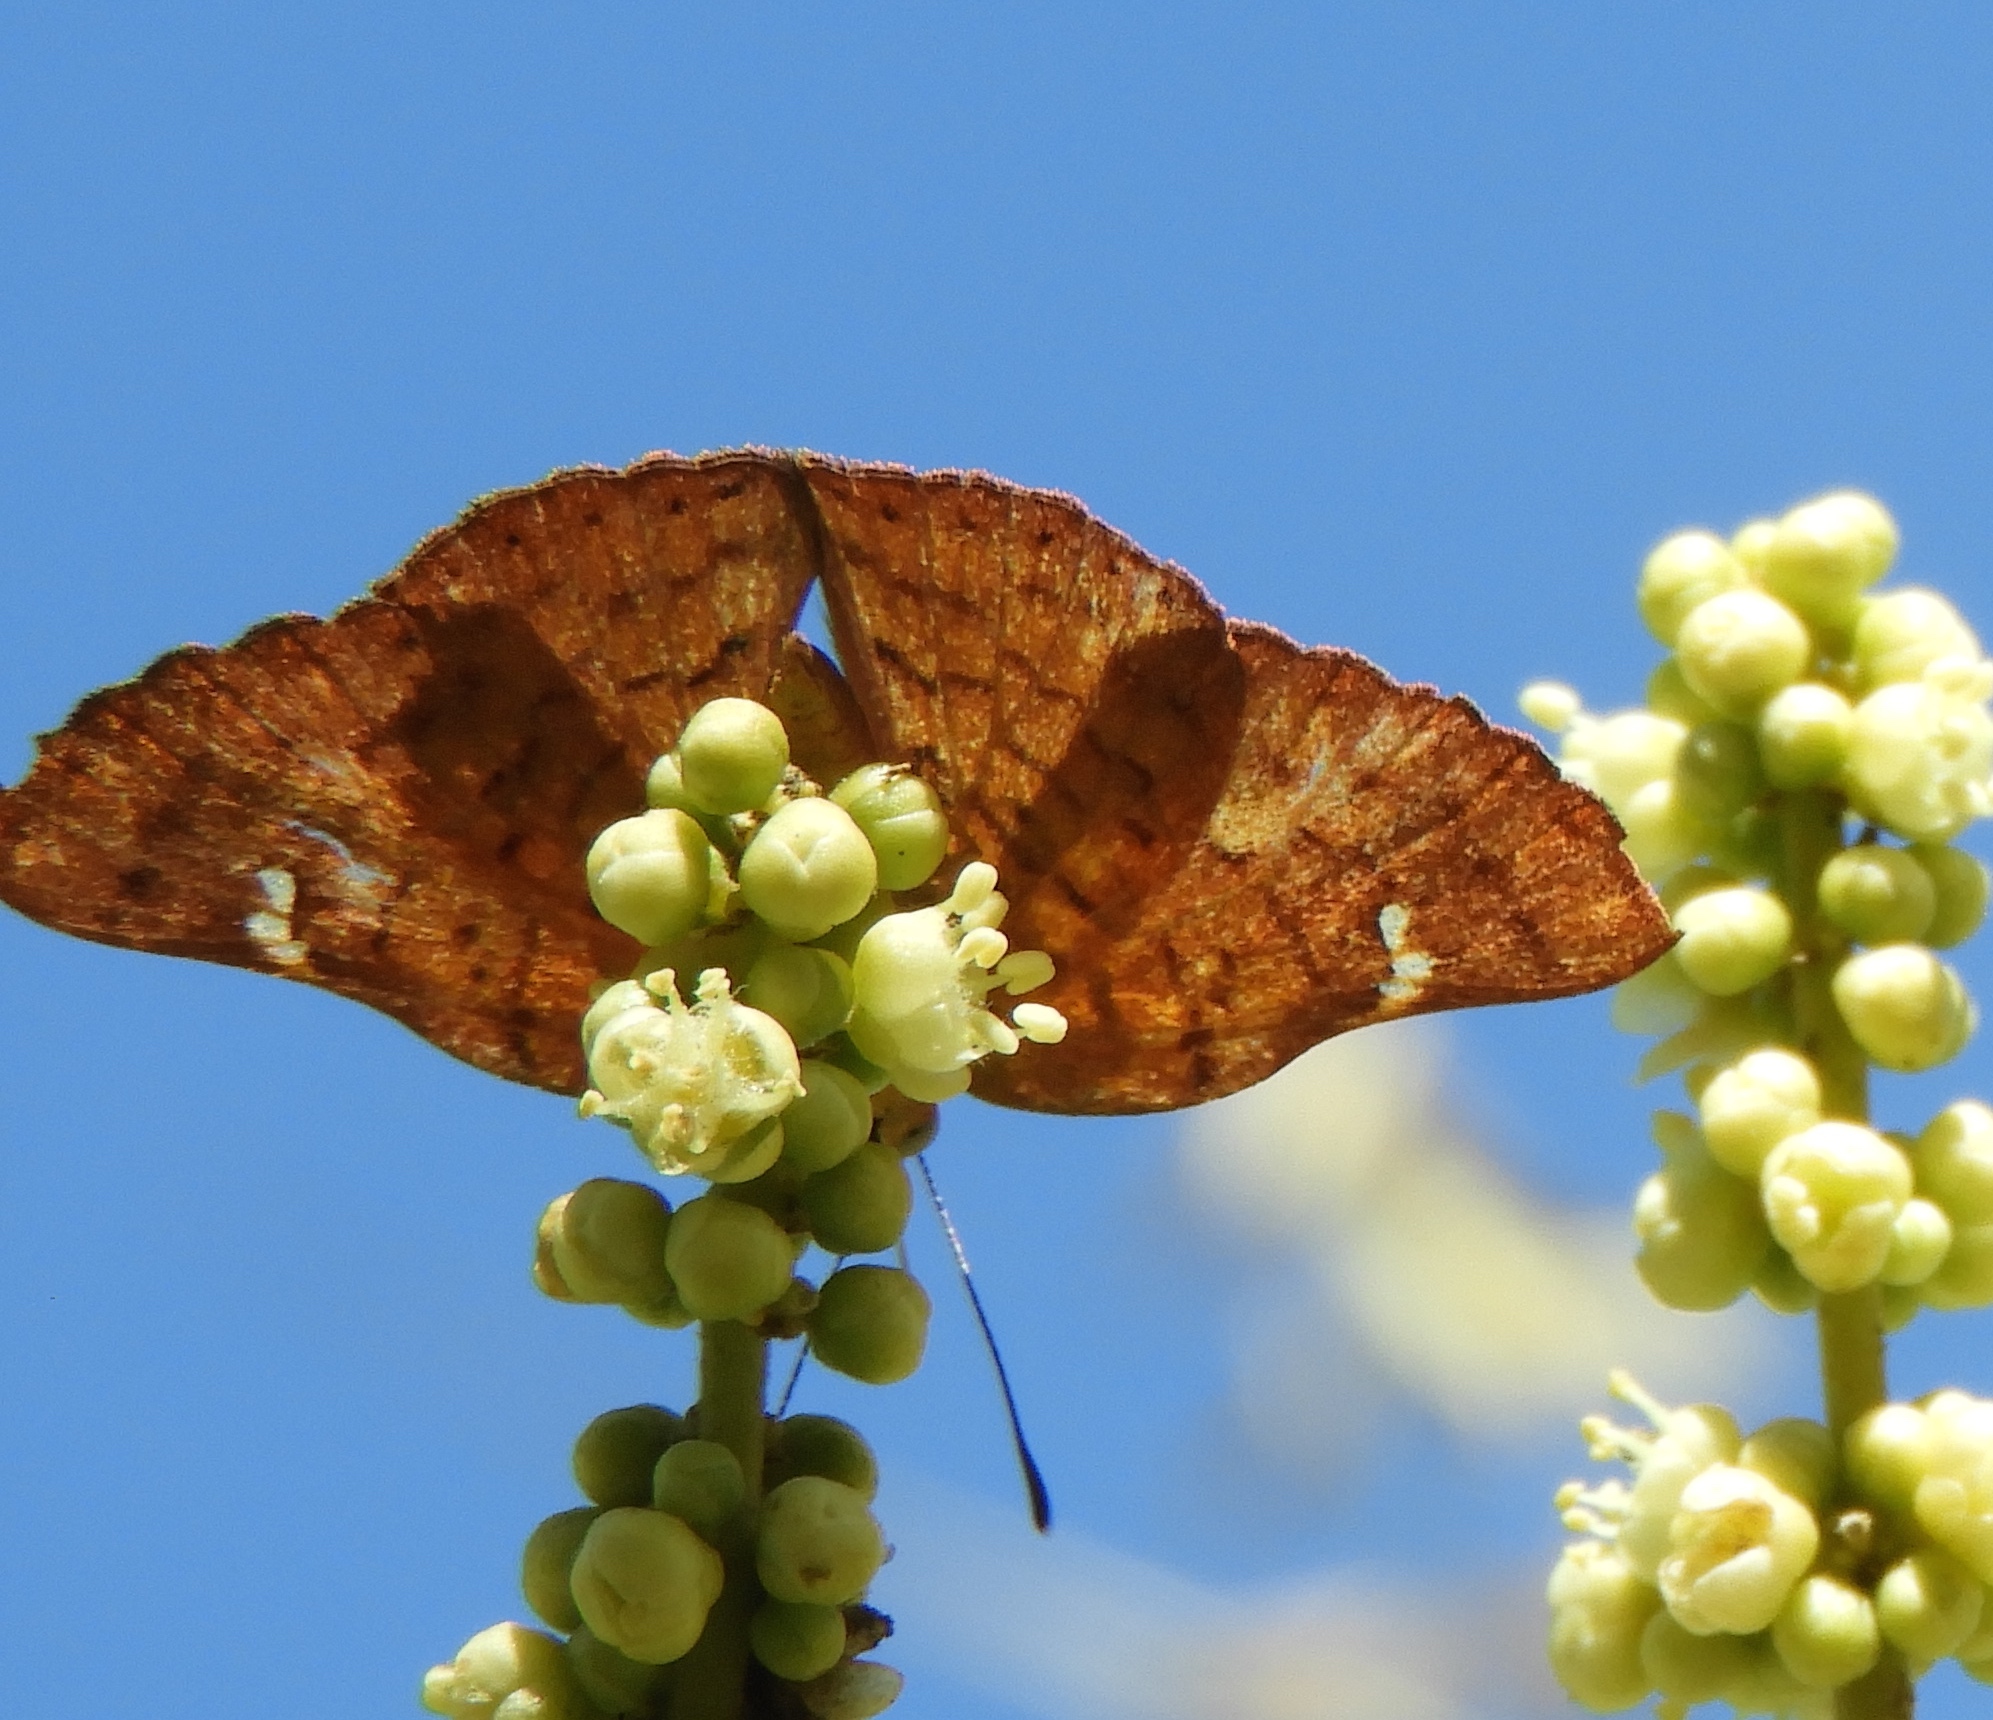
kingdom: Animalia
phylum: Arthropoda
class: Insecta
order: Lepidoptera
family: Riodinidae
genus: Curvie
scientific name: Curvie emesia
